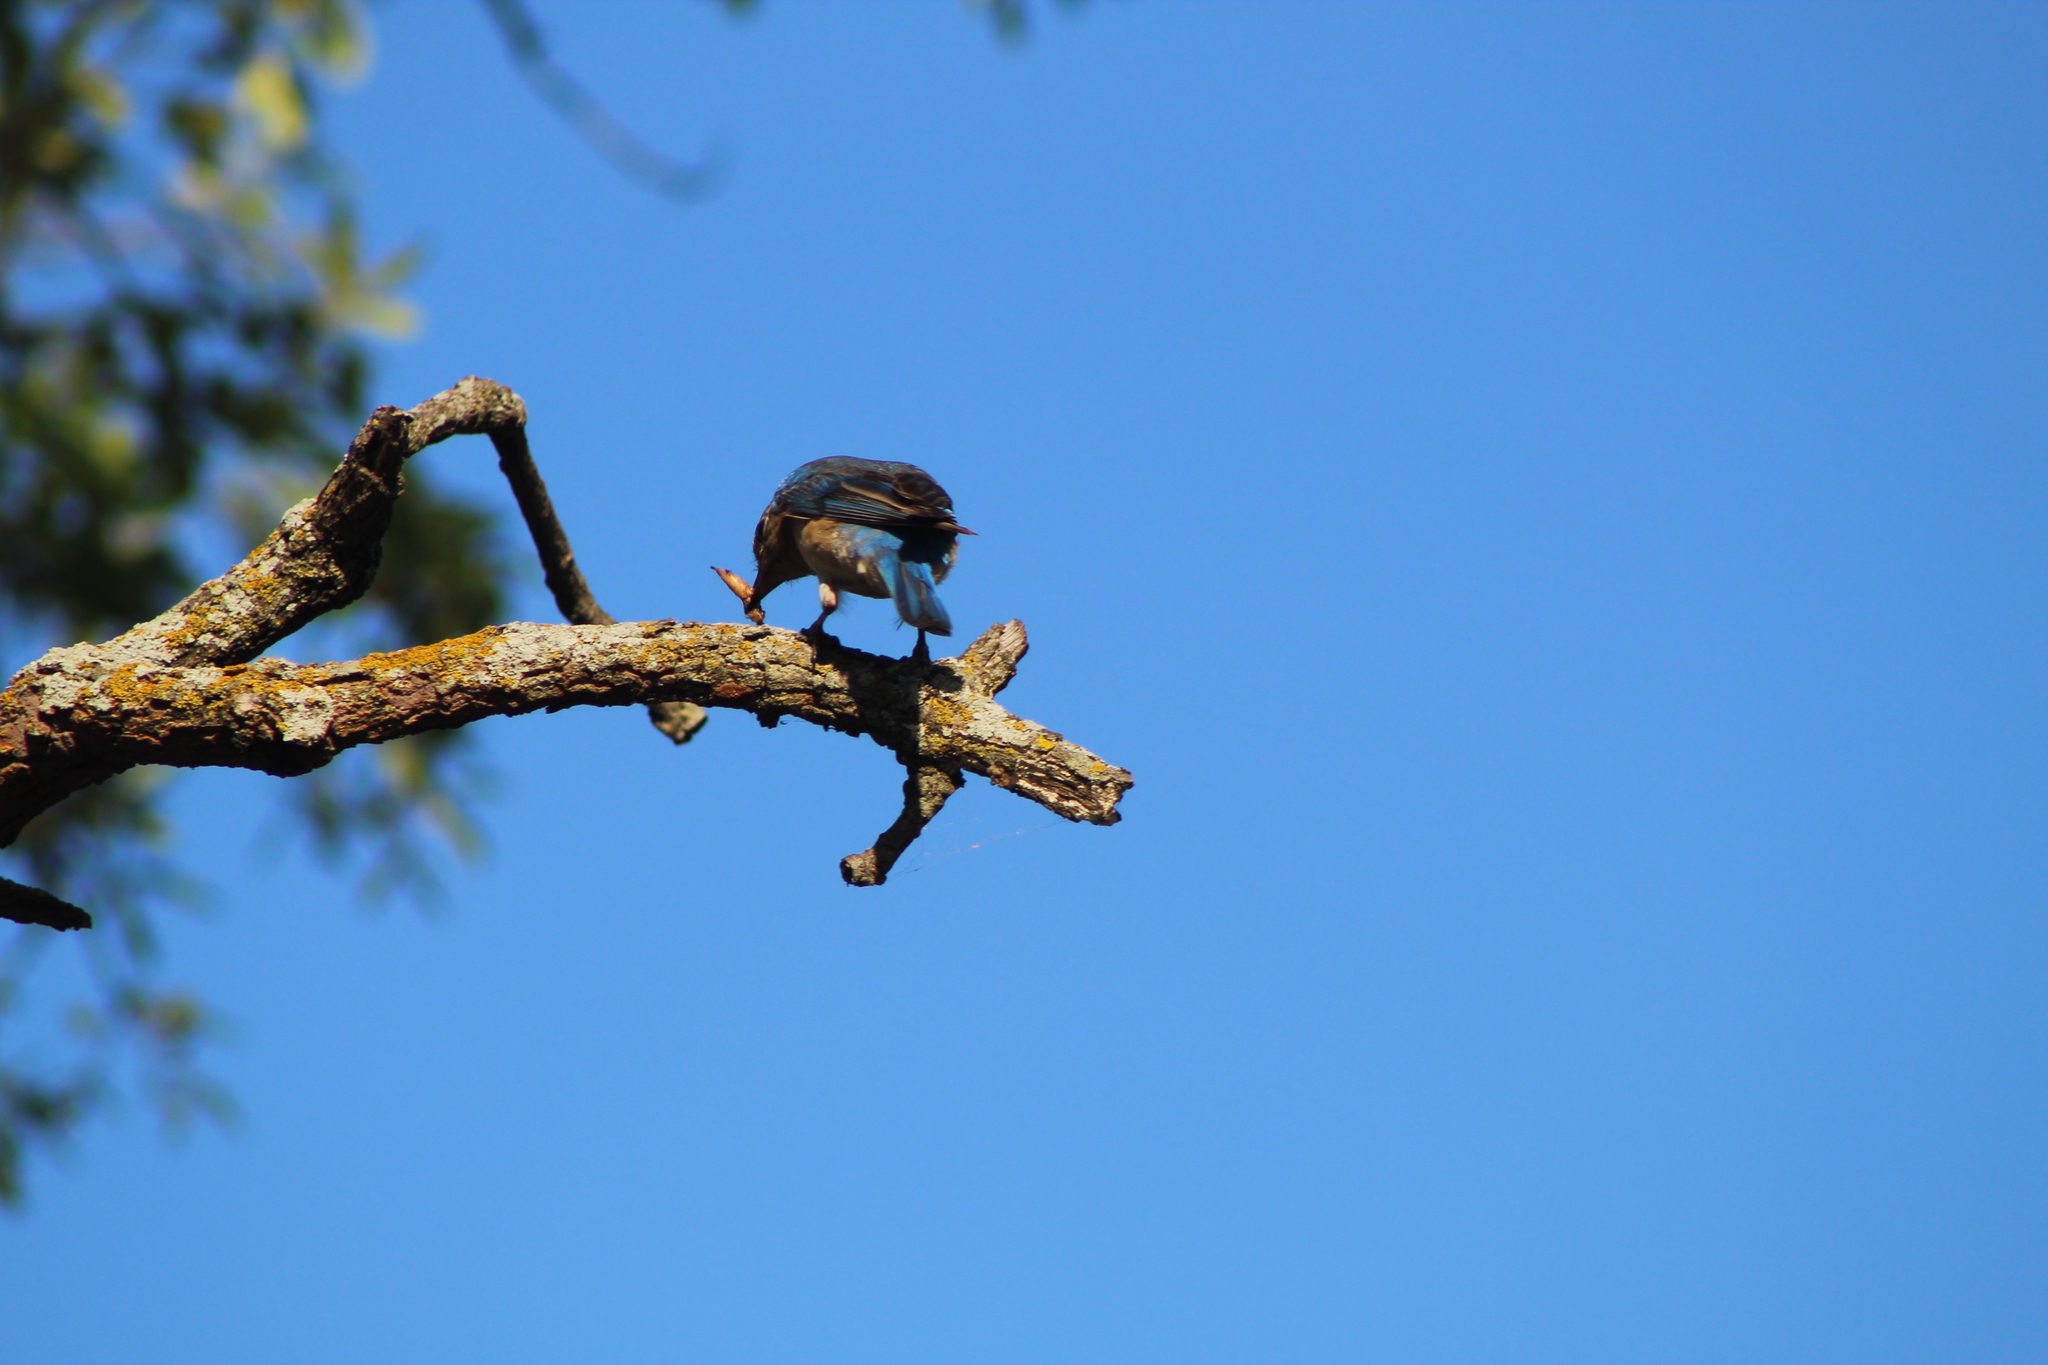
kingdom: Animalia
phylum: Chordata
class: Aves
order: Passeriformes
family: Turdidae
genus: Sialia
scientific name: Sialia sialis
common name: Eastern bluebird
